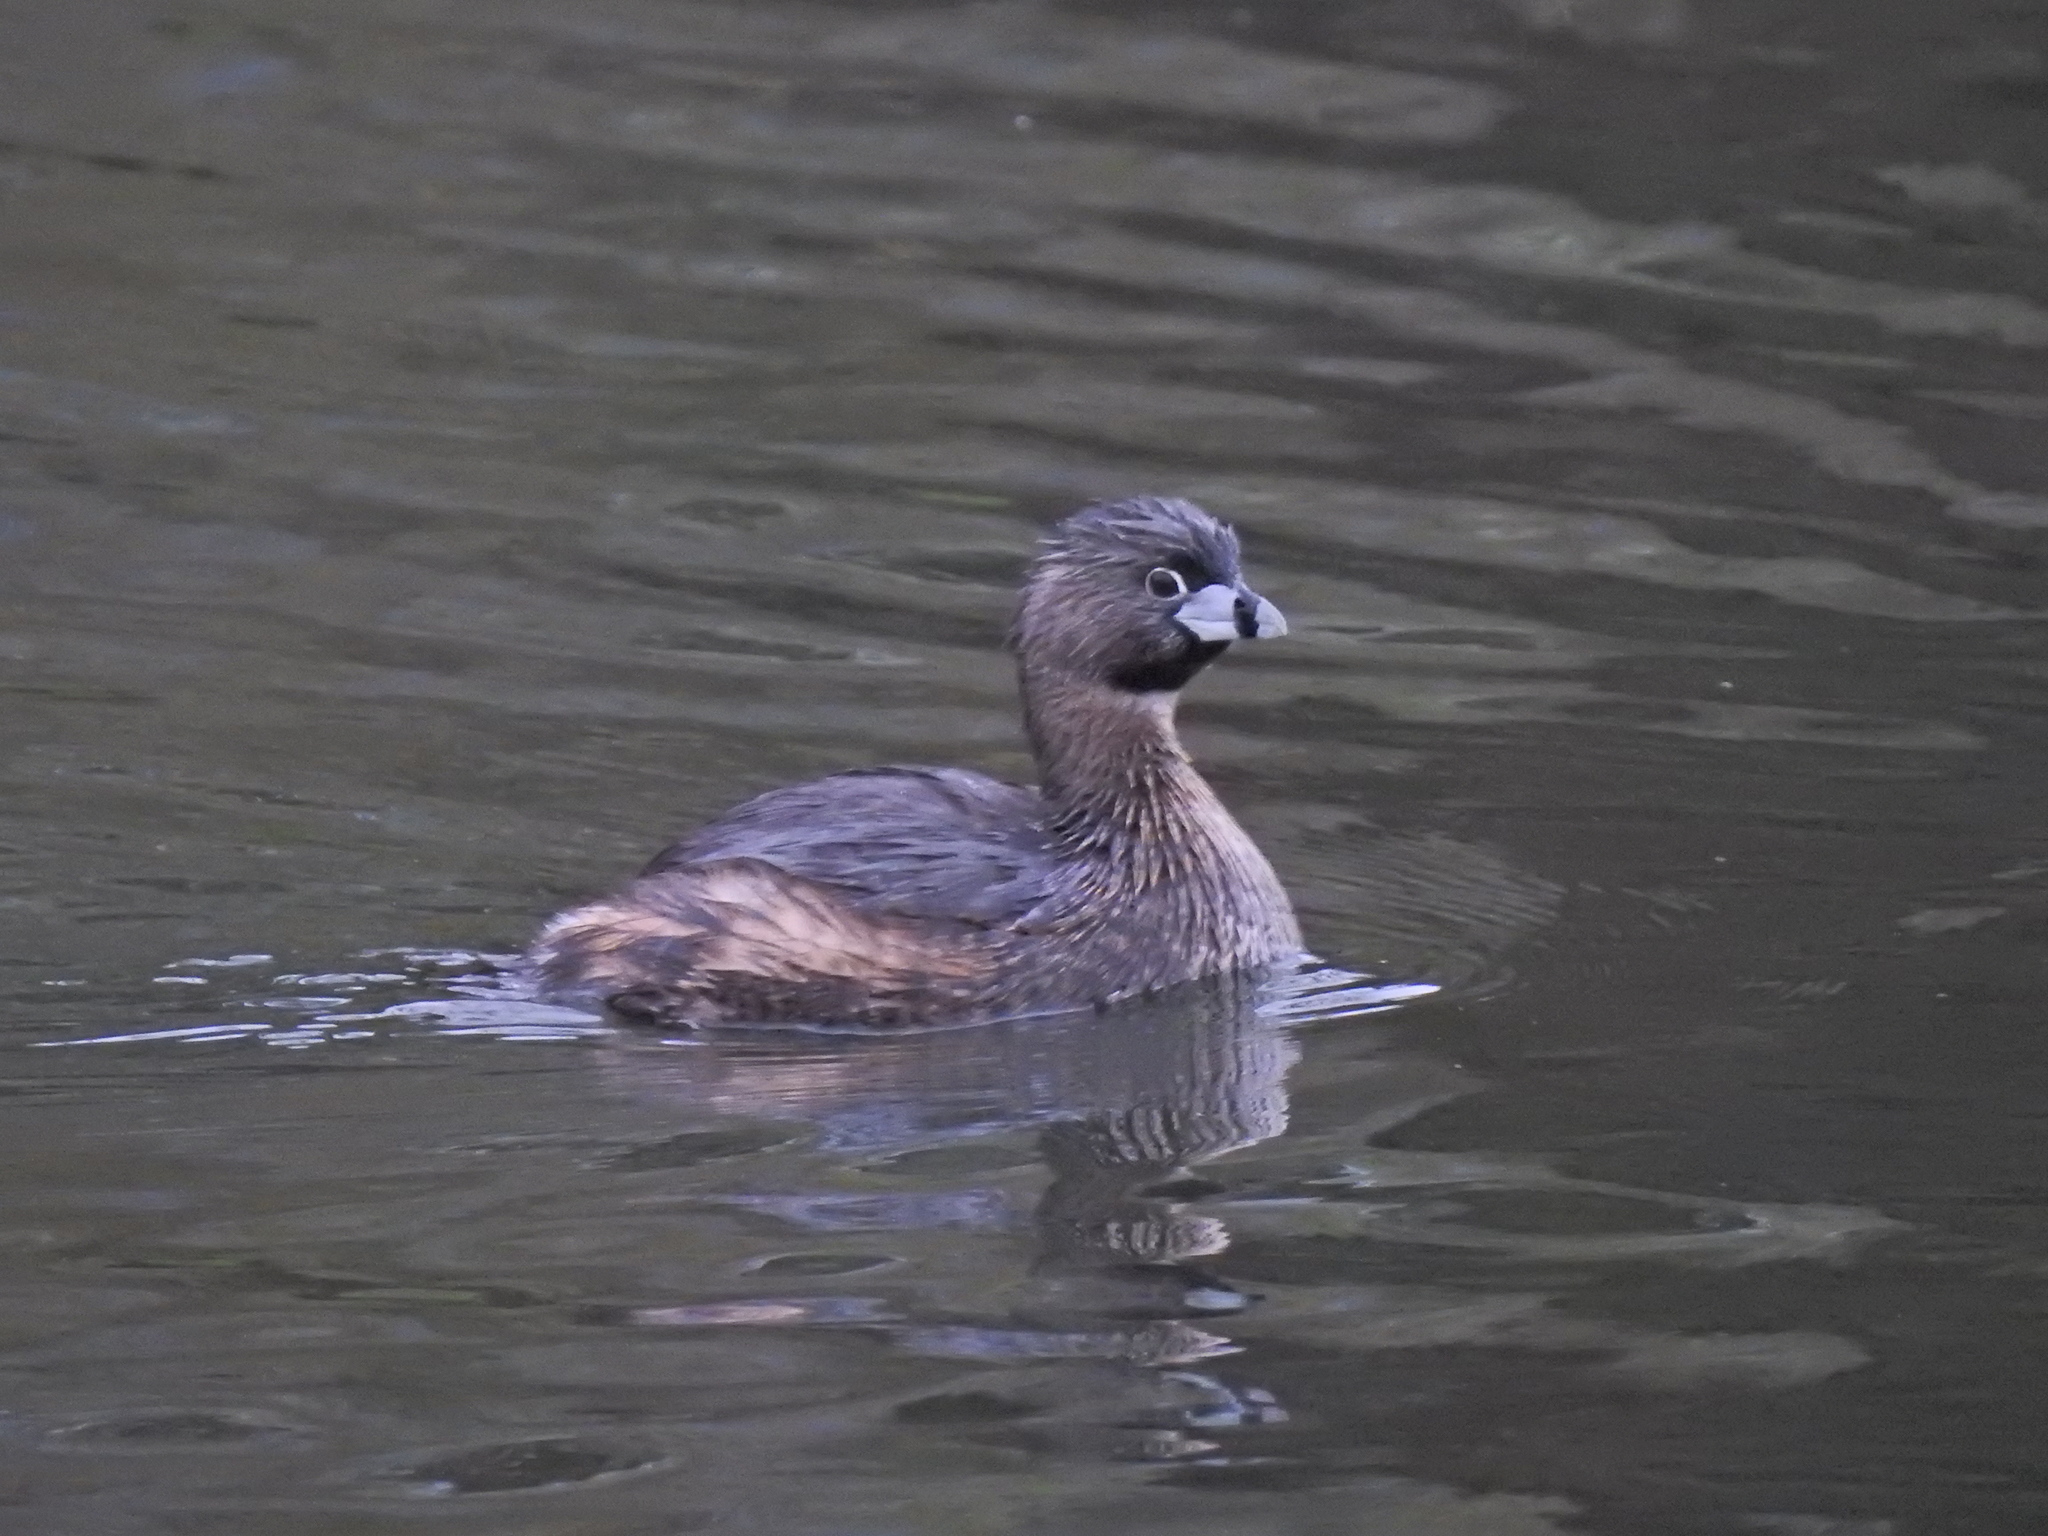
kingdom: Animalia
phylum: Chordata
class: Aves
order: Podicipediformes
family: Podicipedidae
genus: Podilymbus
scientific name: Podilymbus podiceps
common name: Pied-billed grebe
